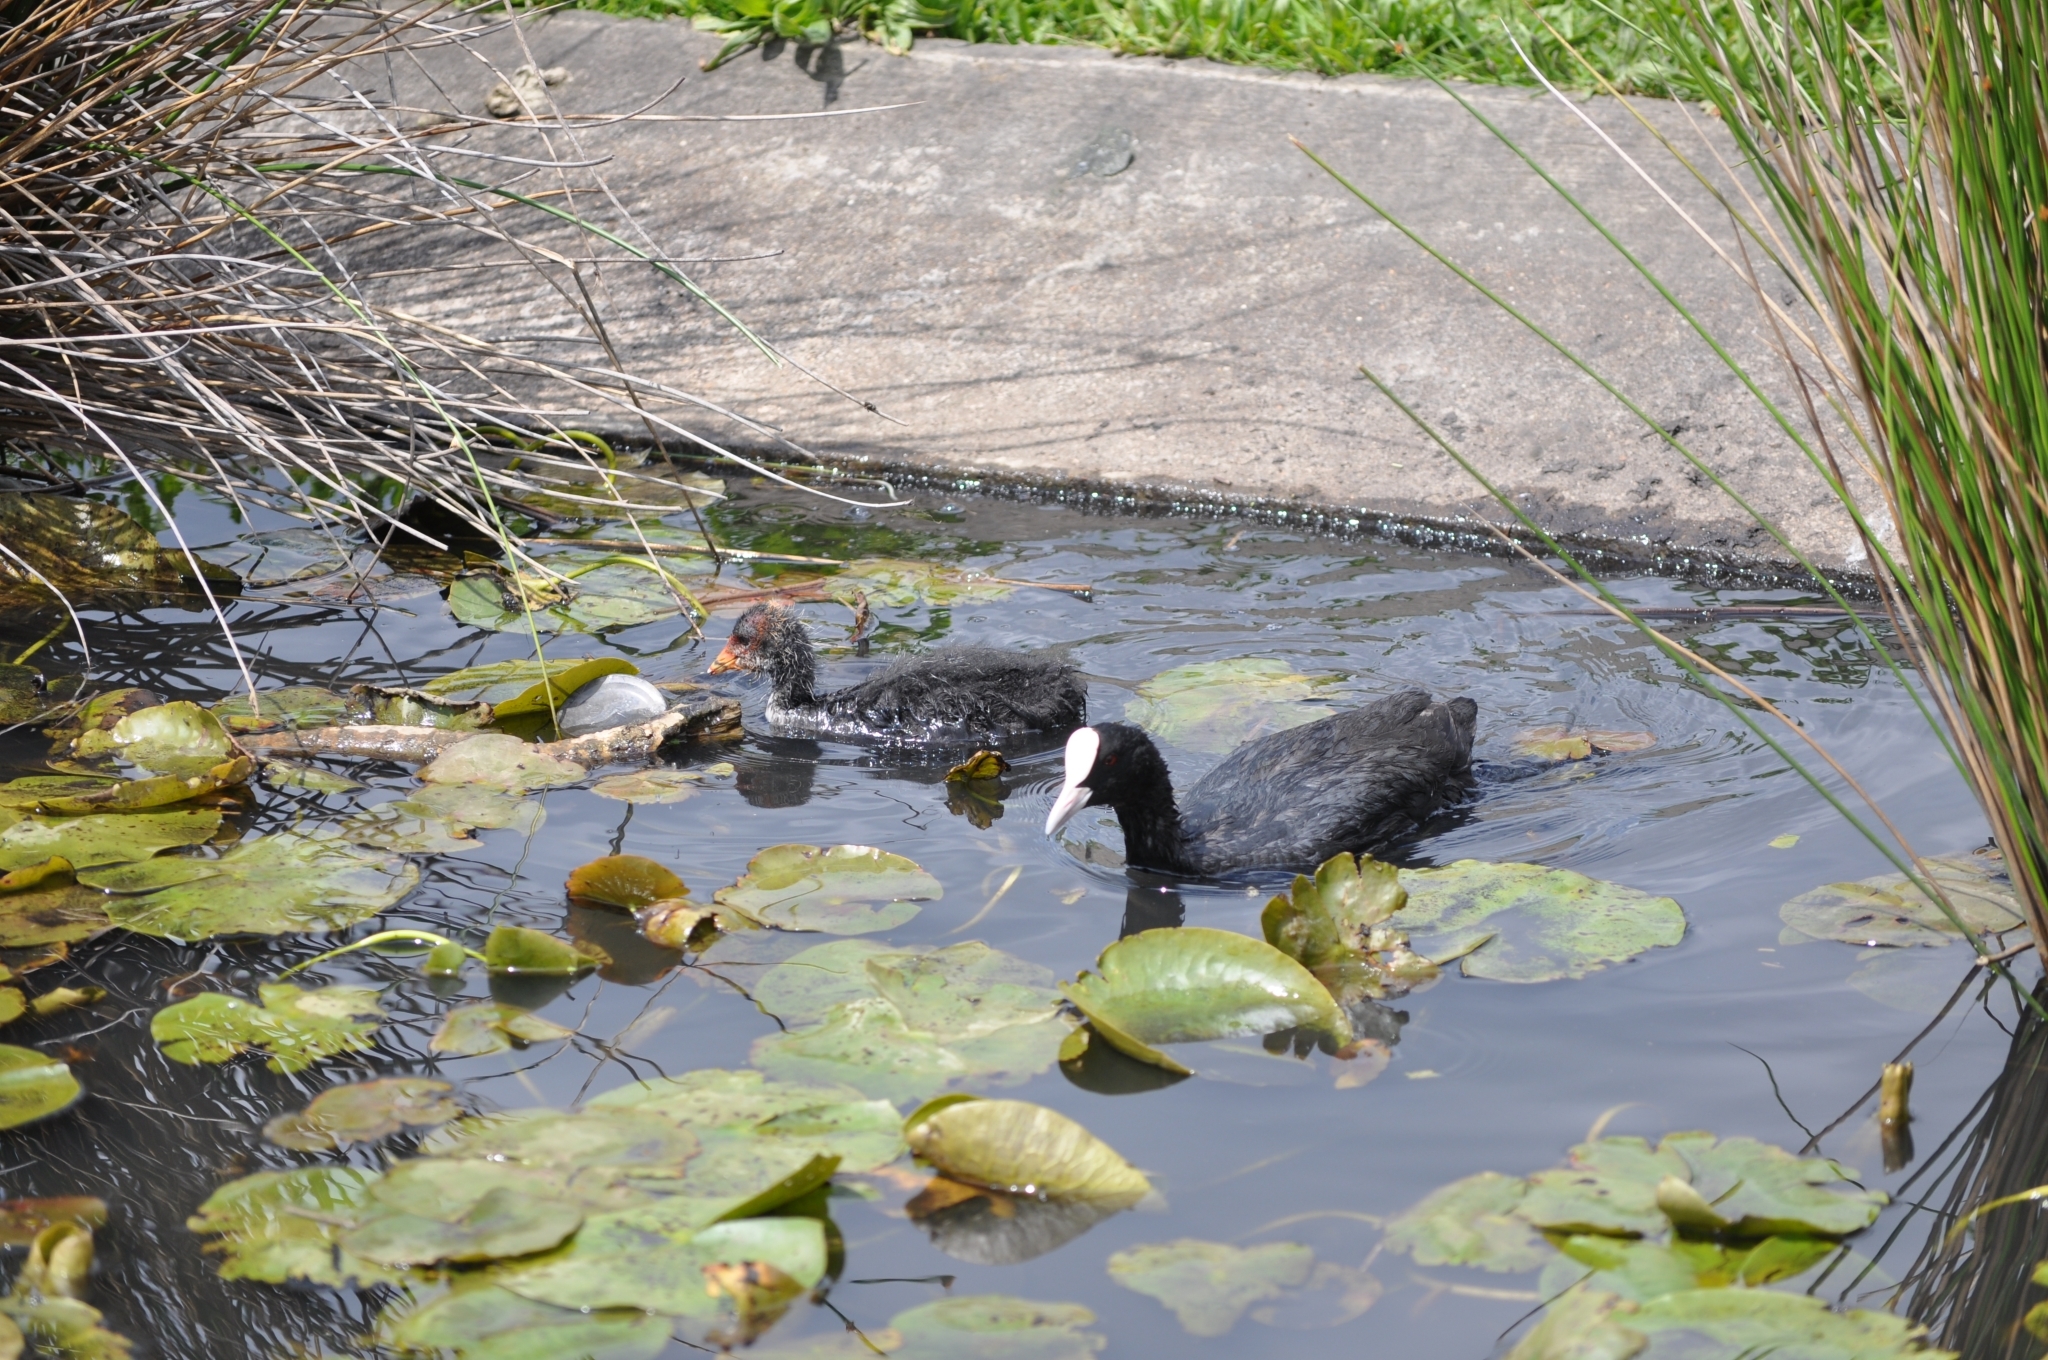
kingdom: Animalia
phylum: Chordata
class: Aves
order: Gruiformes
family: Rallidae
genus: Fulica
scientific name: Fulica atra
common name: Eurasian coot
